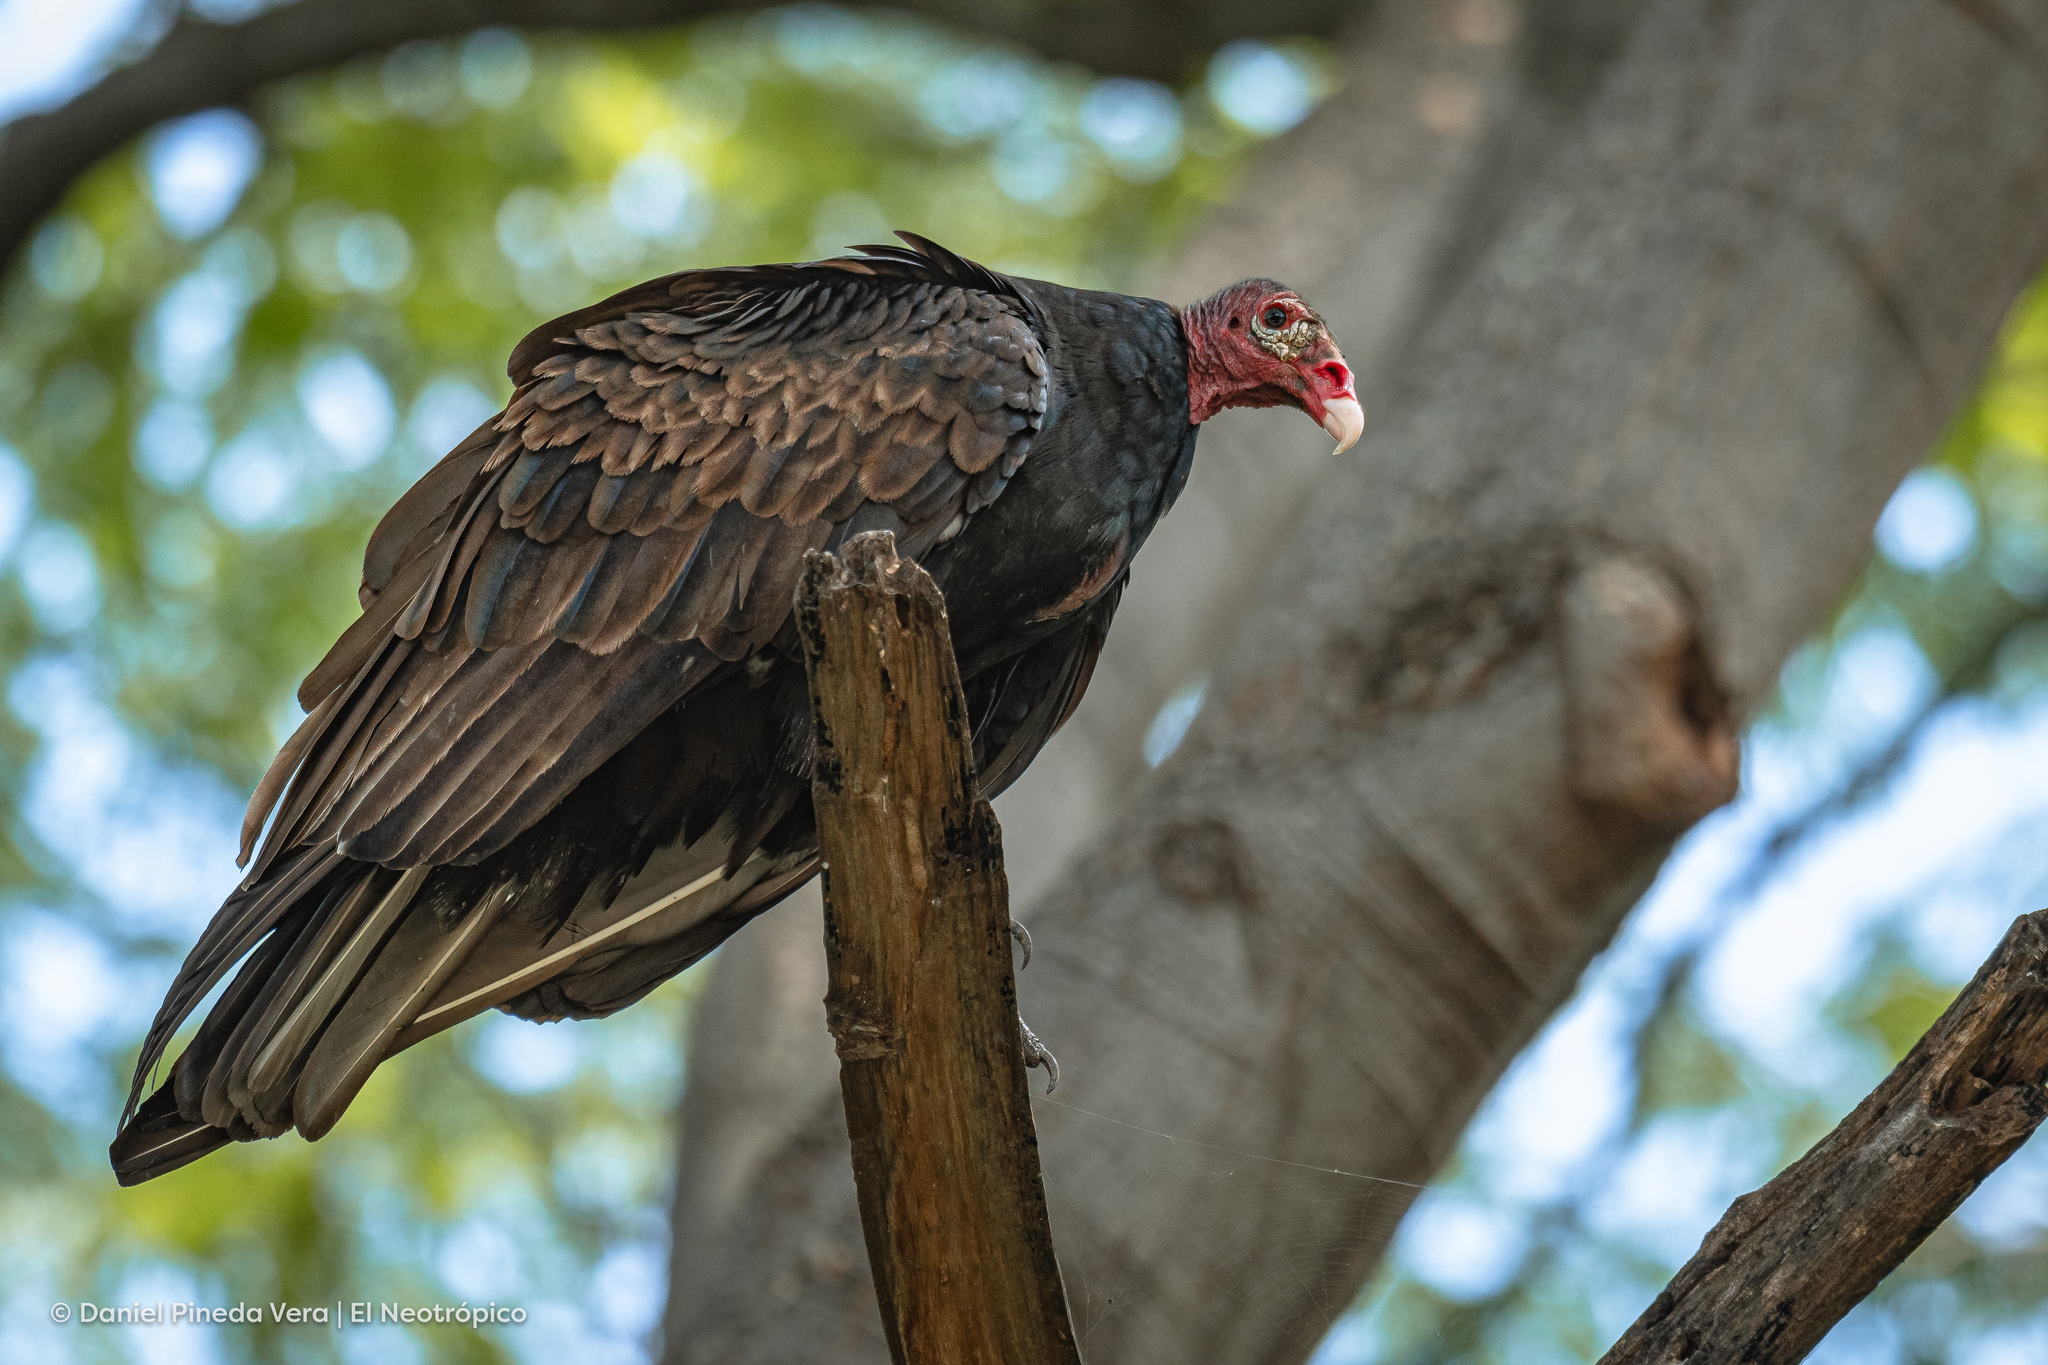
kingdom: Animalia
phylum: Chordata
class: Aves
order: Accipitriformes
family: Cathartidae
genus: Cathartes
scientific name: Cathartes aura
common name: Turkey vulture
